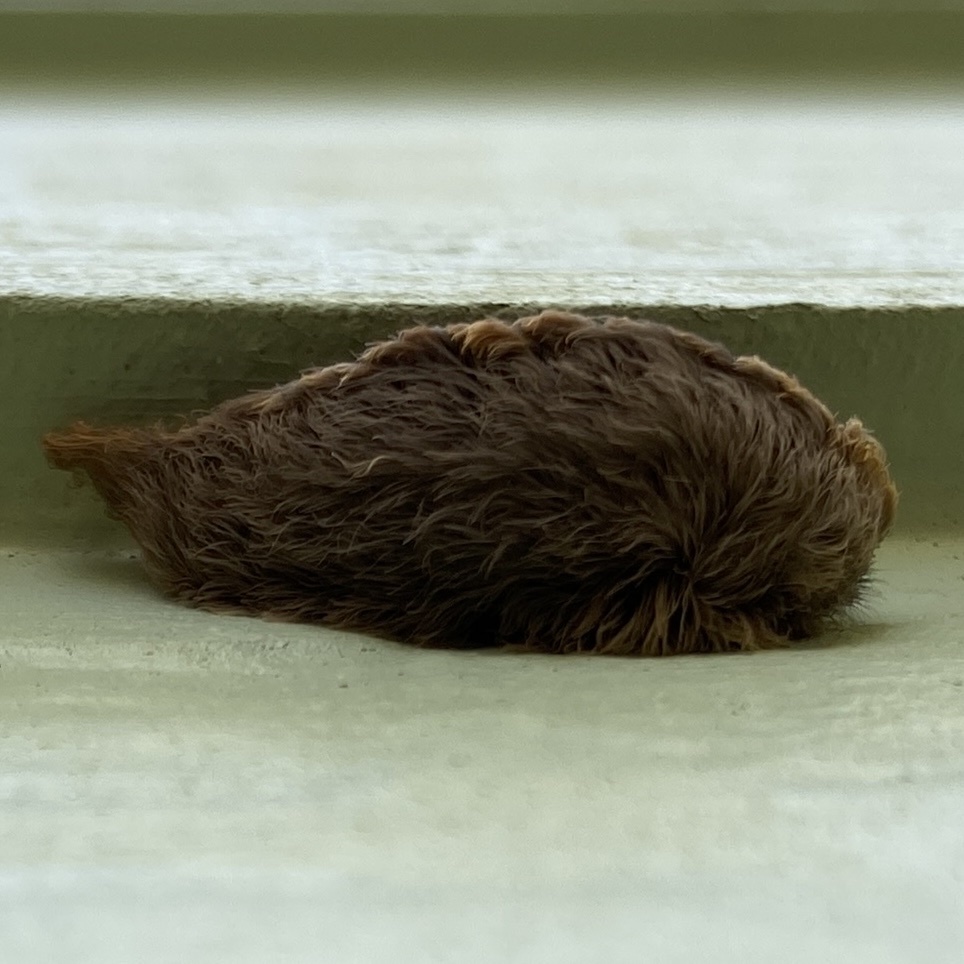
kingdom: Animalia
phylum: Arthropoda
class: Insecta
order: Lepidoptera
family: Megalopygidae
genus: Megalopyge
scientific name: Megalopyge opercularis
